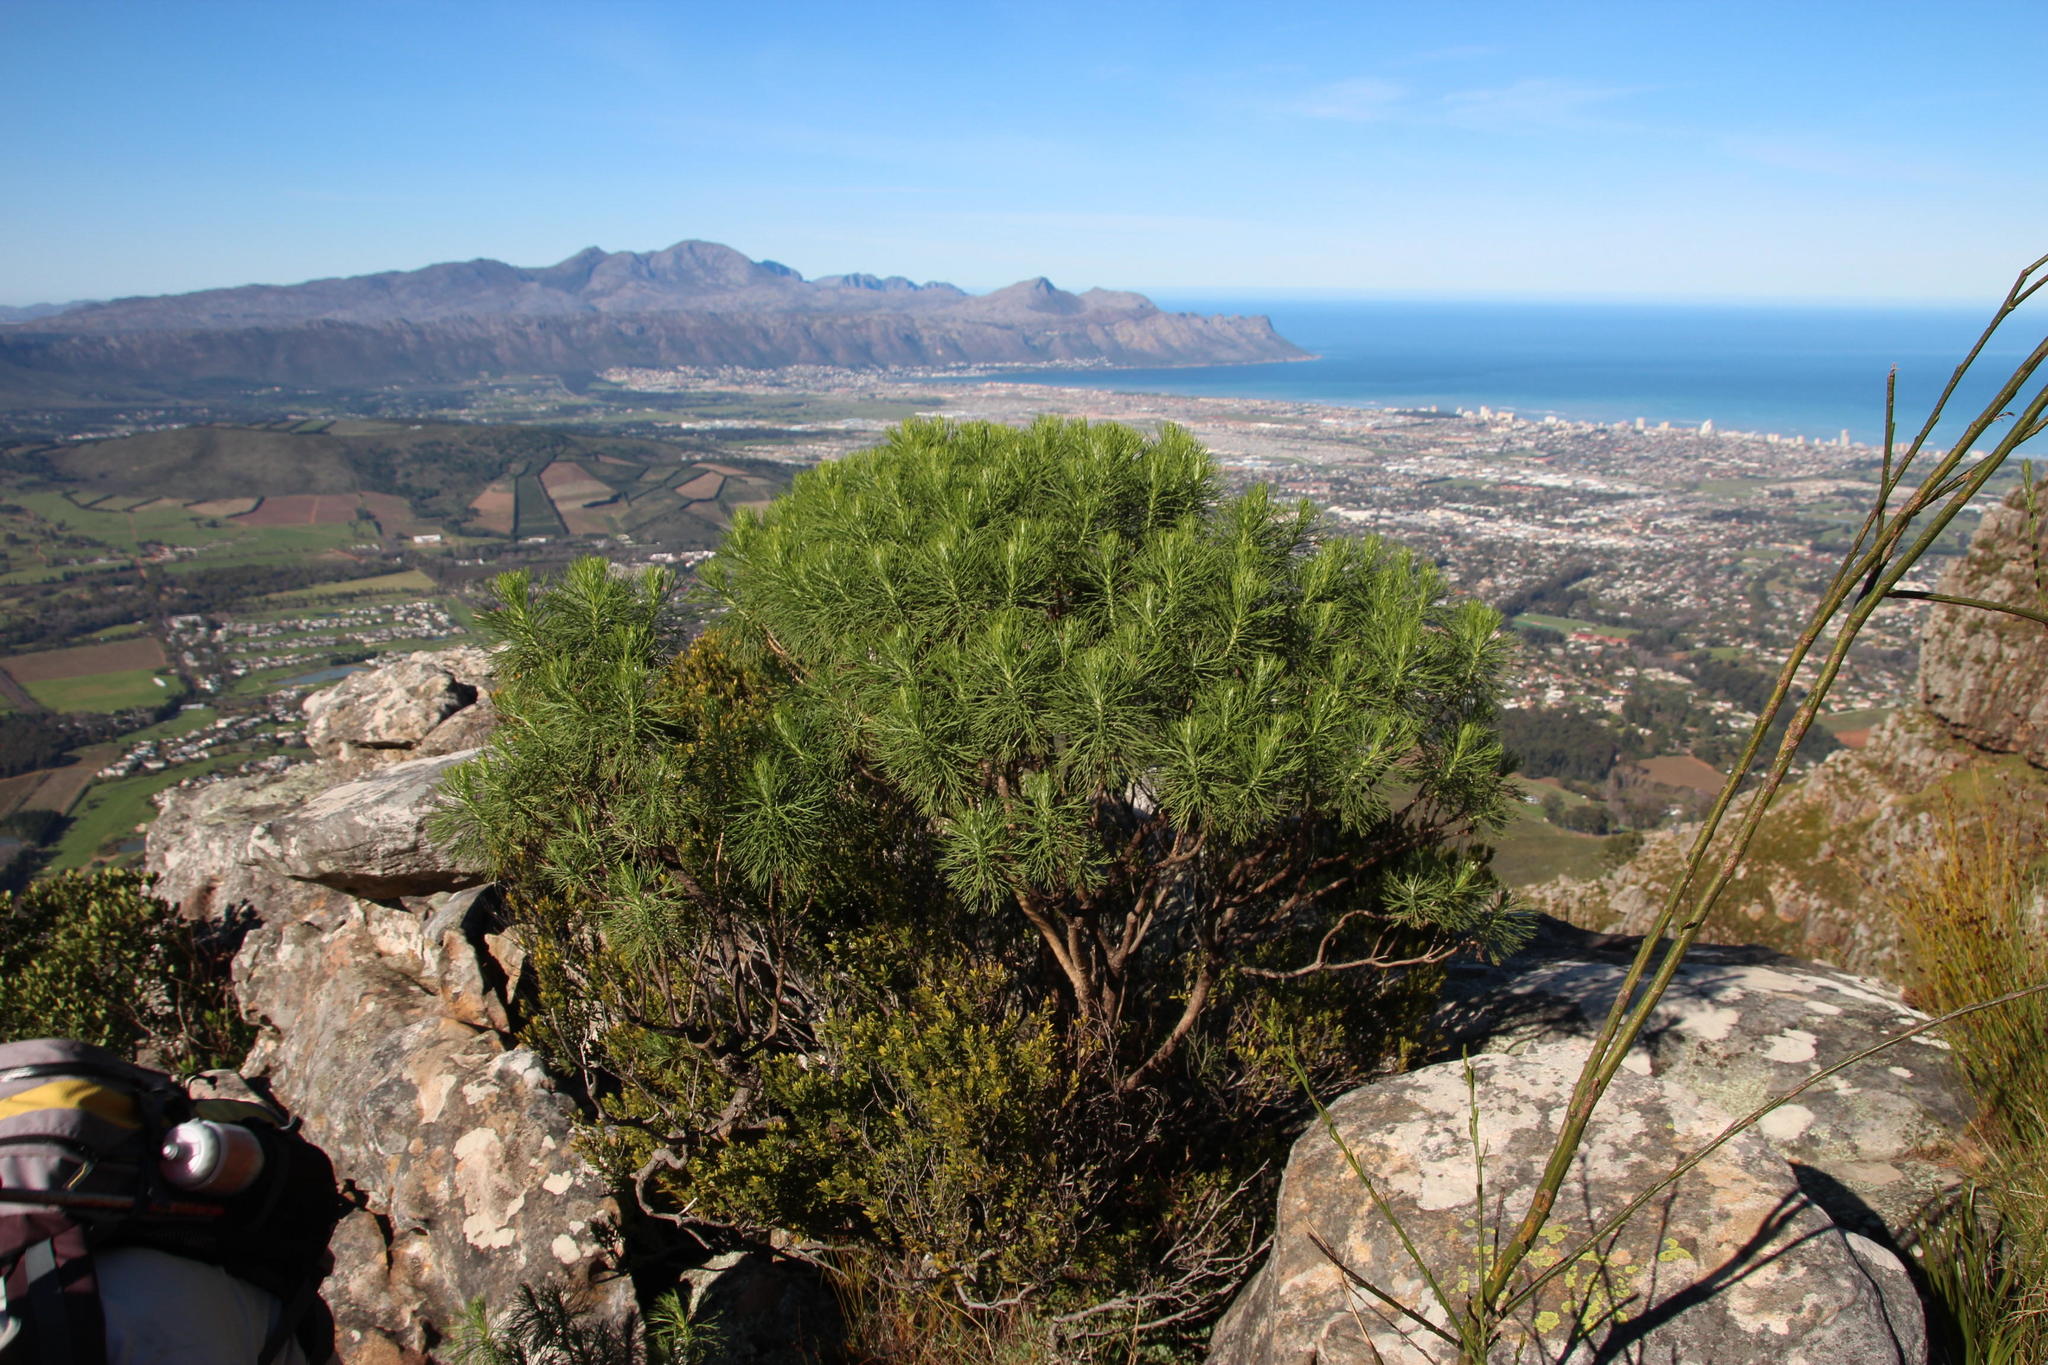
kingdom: Plantae
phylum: Tracheophyta
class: Magnoliopsida
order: Asterales
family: Asteraceae
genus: Hymenolepis
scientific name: Hymenolepis crithmifolia
